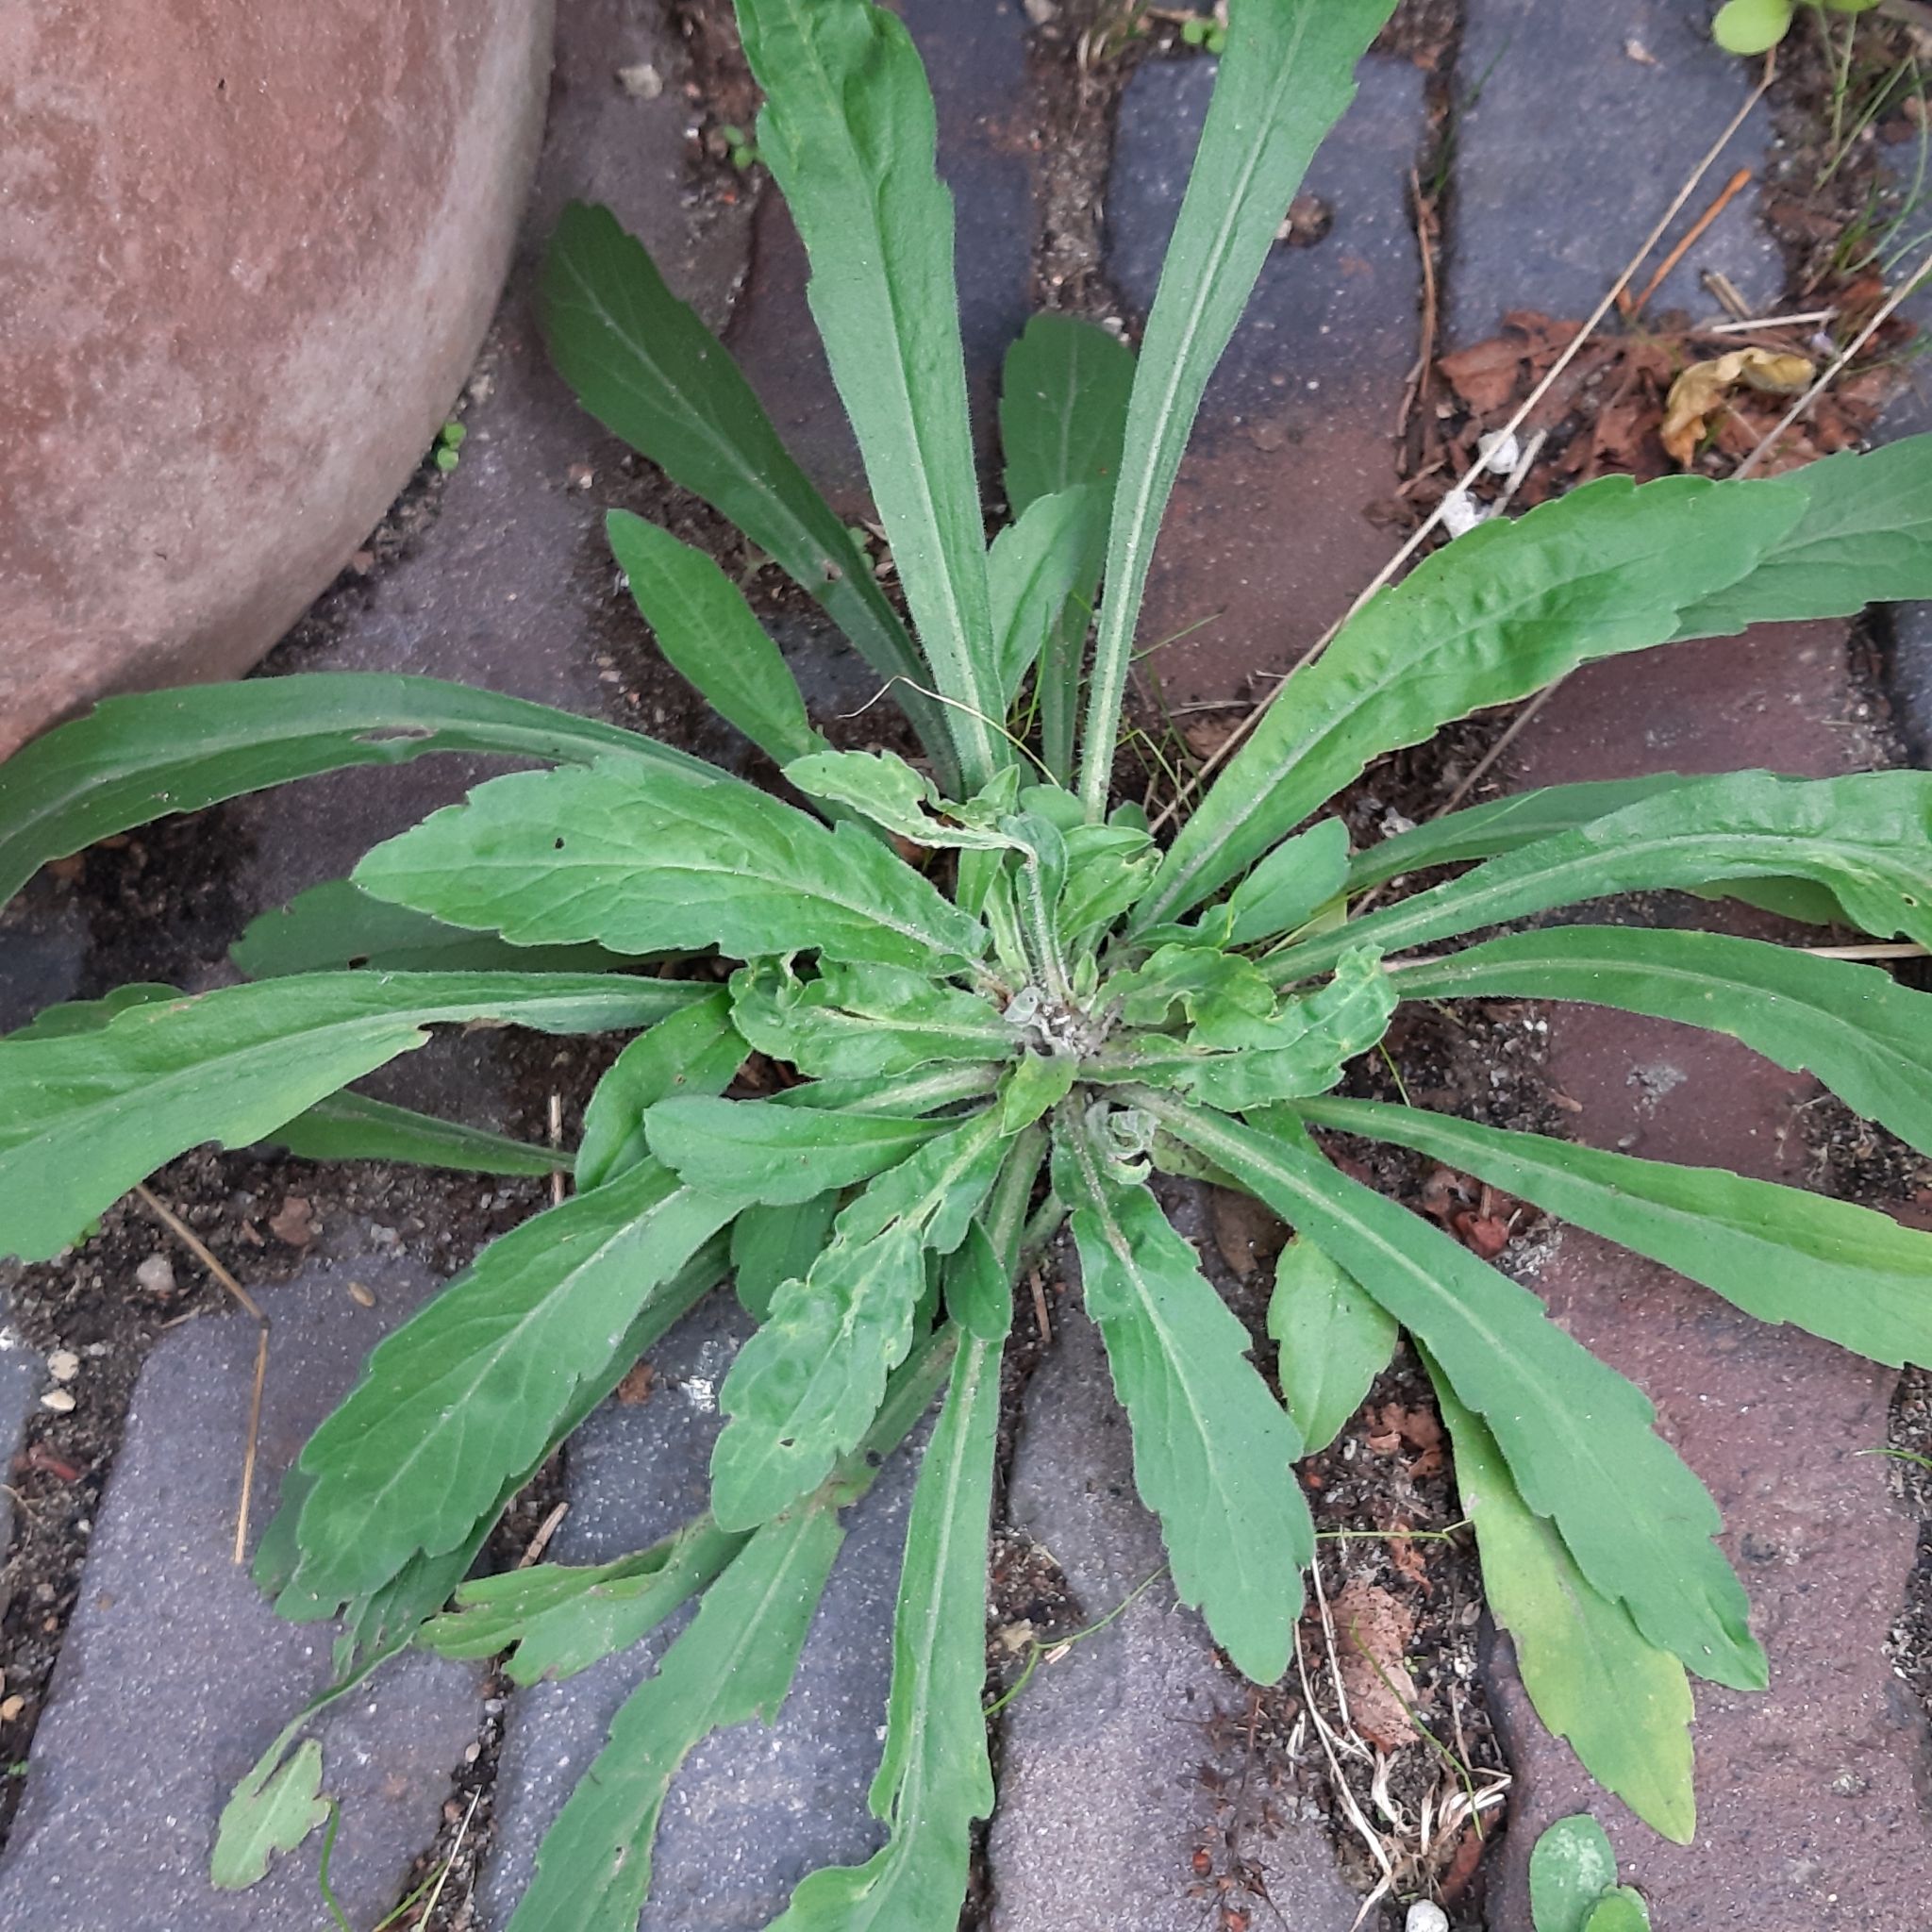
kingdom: Plantae
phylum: Tracheophyta
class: Magnoliopsida
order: Asterales
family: Asteraceae
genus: Erigeron
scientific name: Erigeron sumatrensis
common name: Daisy
